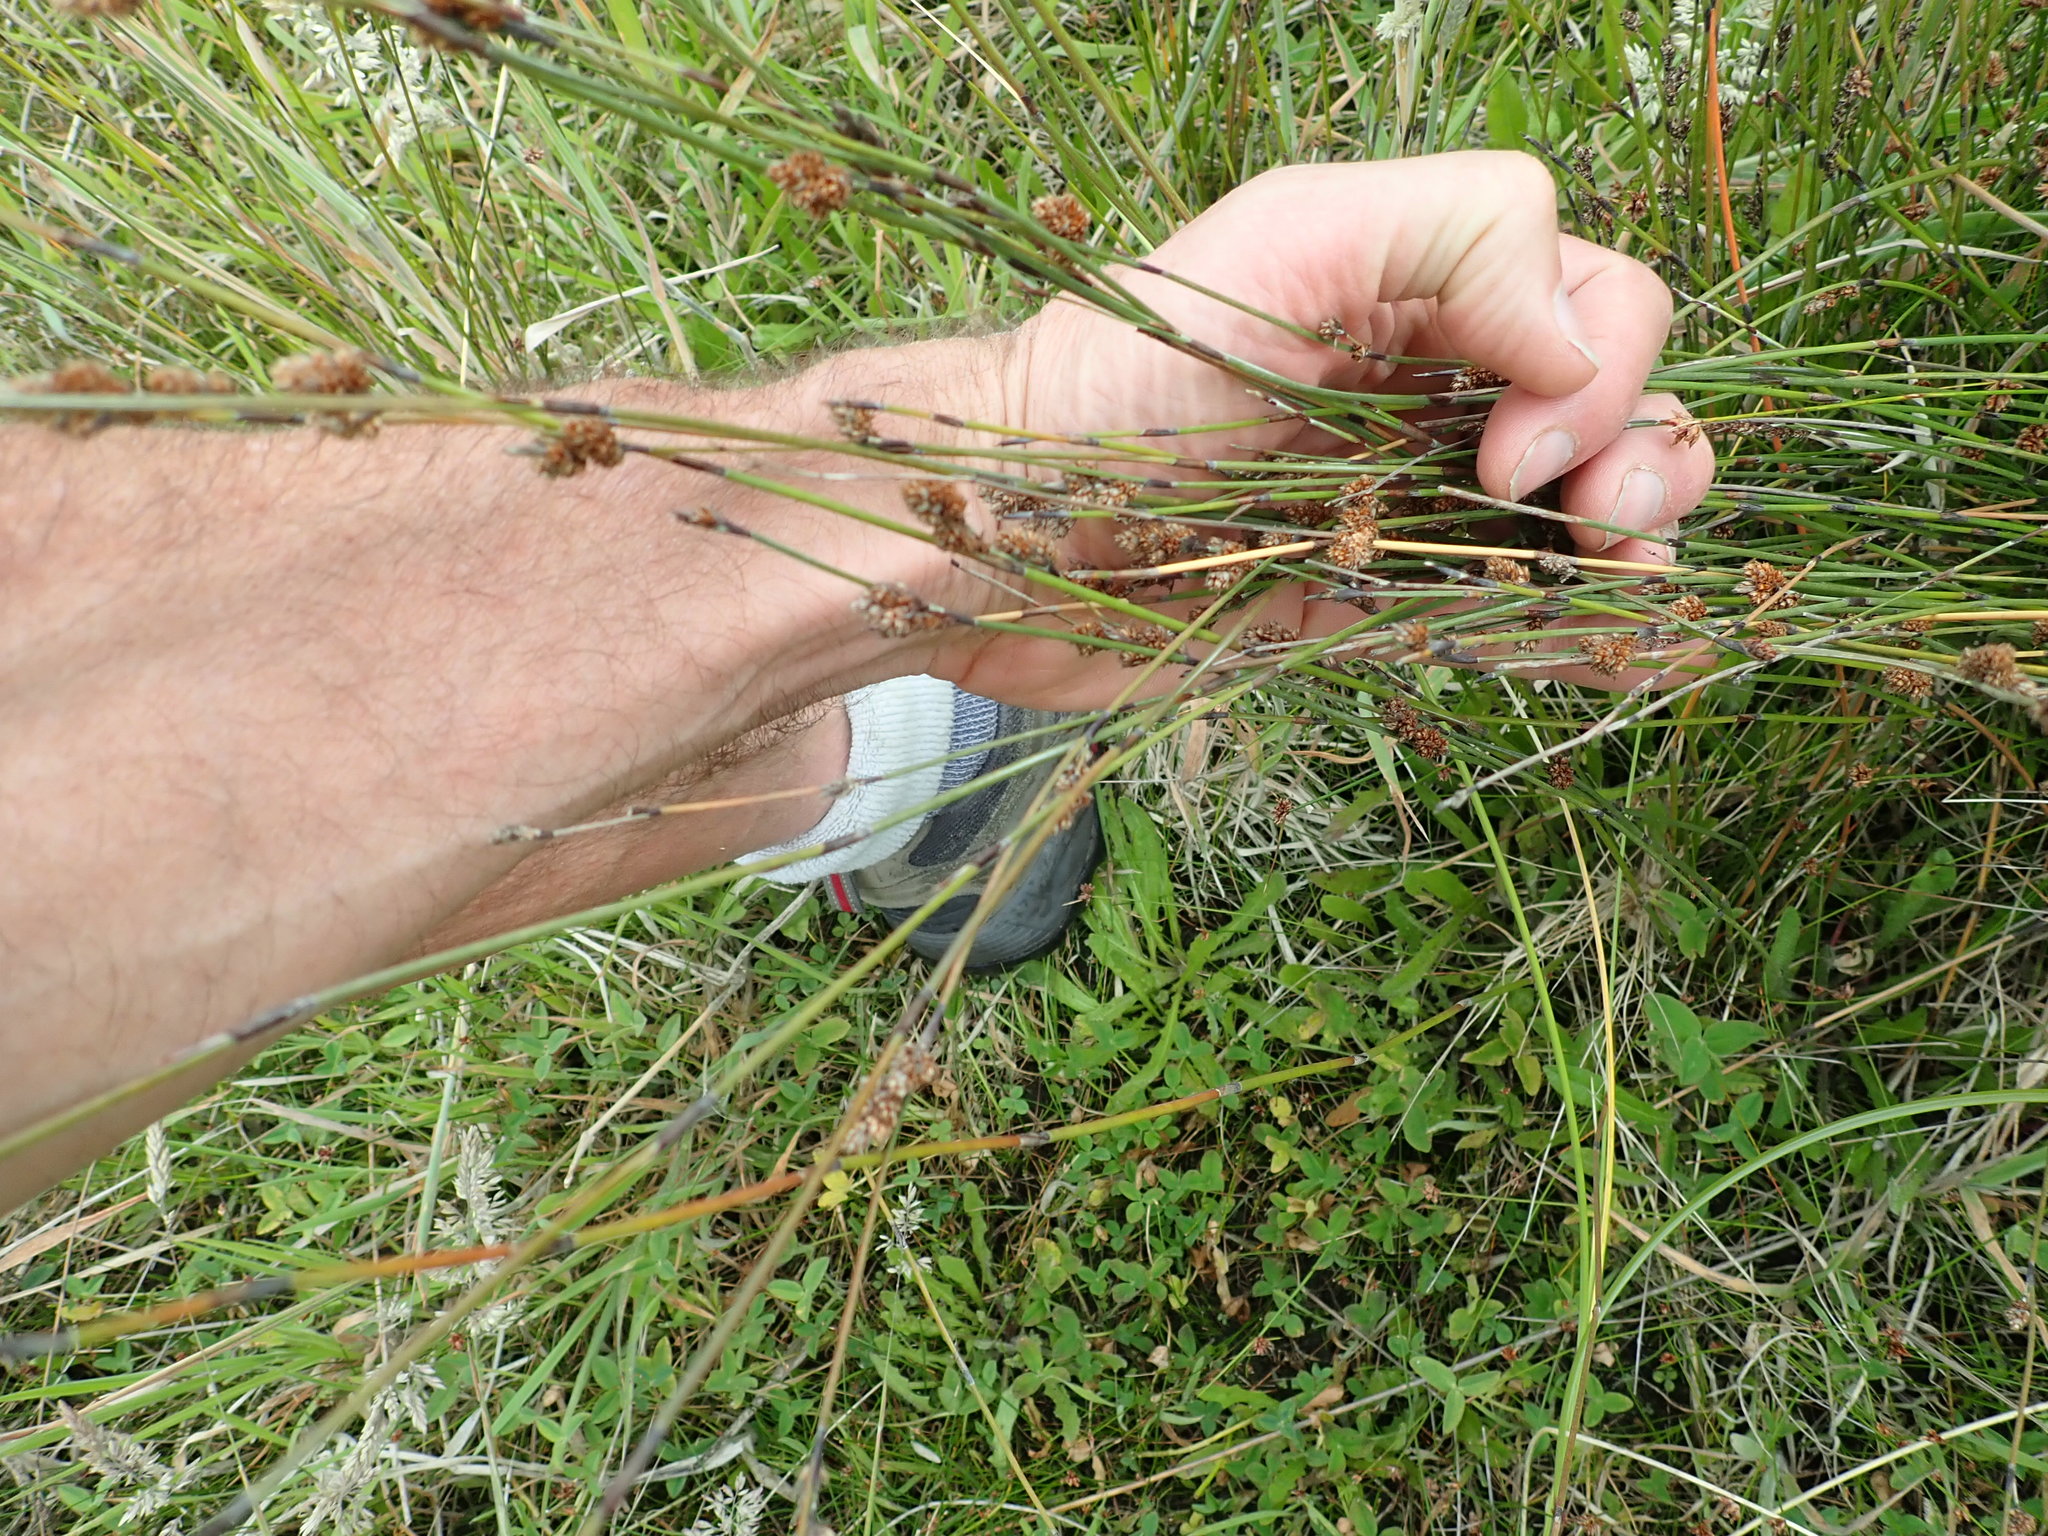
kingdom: Plantae
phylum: Tracheophyta
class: Liliopsida
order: Poales
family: Restionaceae
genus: Apodasmia
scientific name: Apodasmia similis
